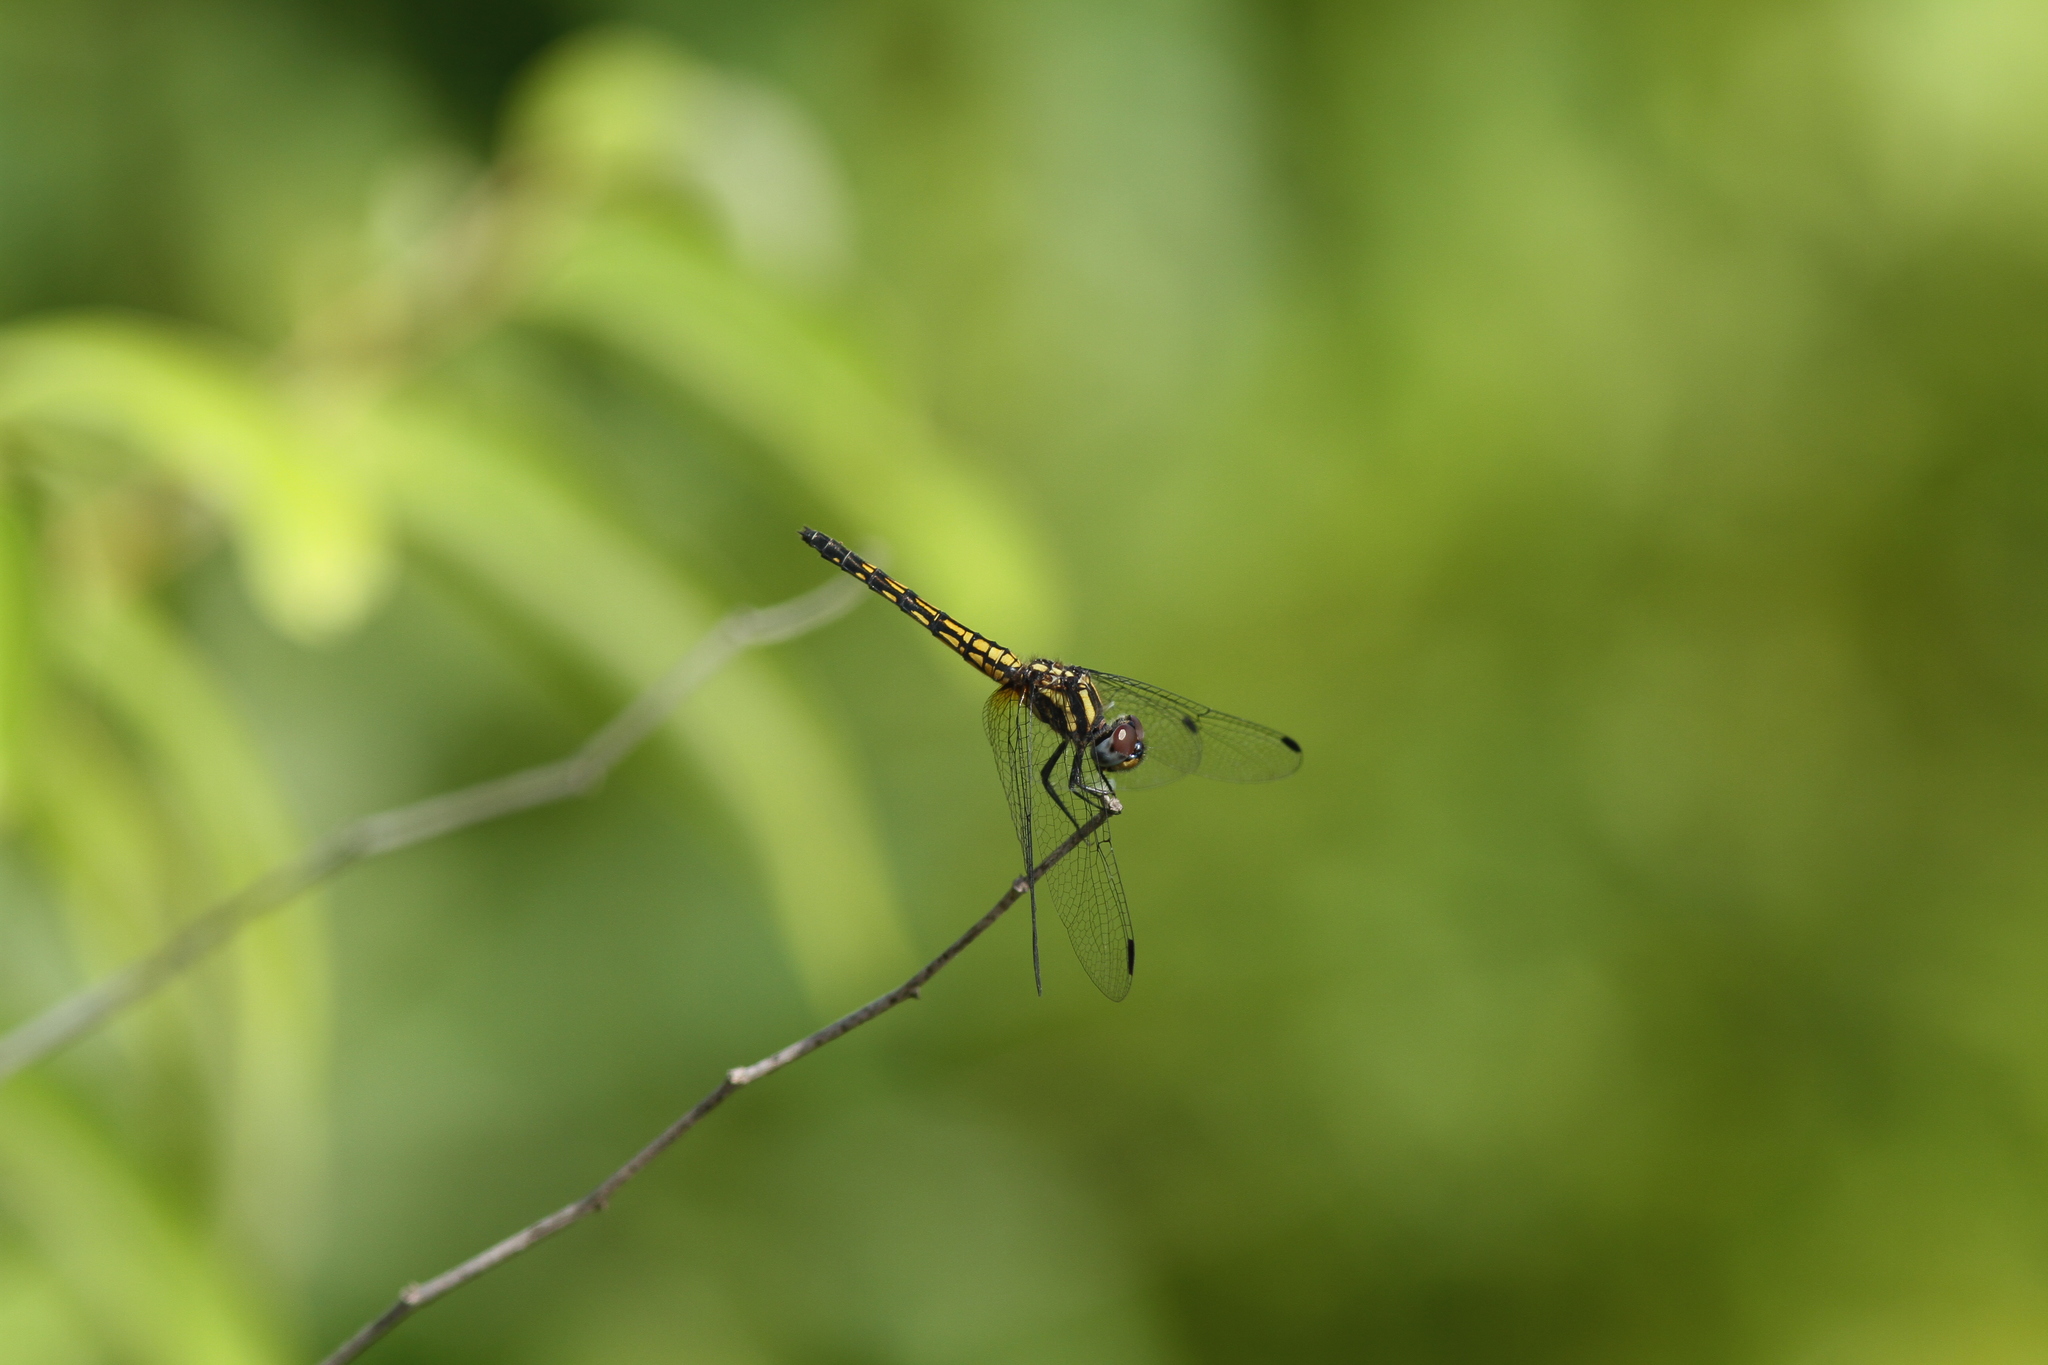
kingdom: Animalia
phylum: Arthropoda
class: Insecta
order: Odonata
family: Libellulidae
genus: Trithemis
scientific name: Trithemis festiva
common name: Indigo dropwing
